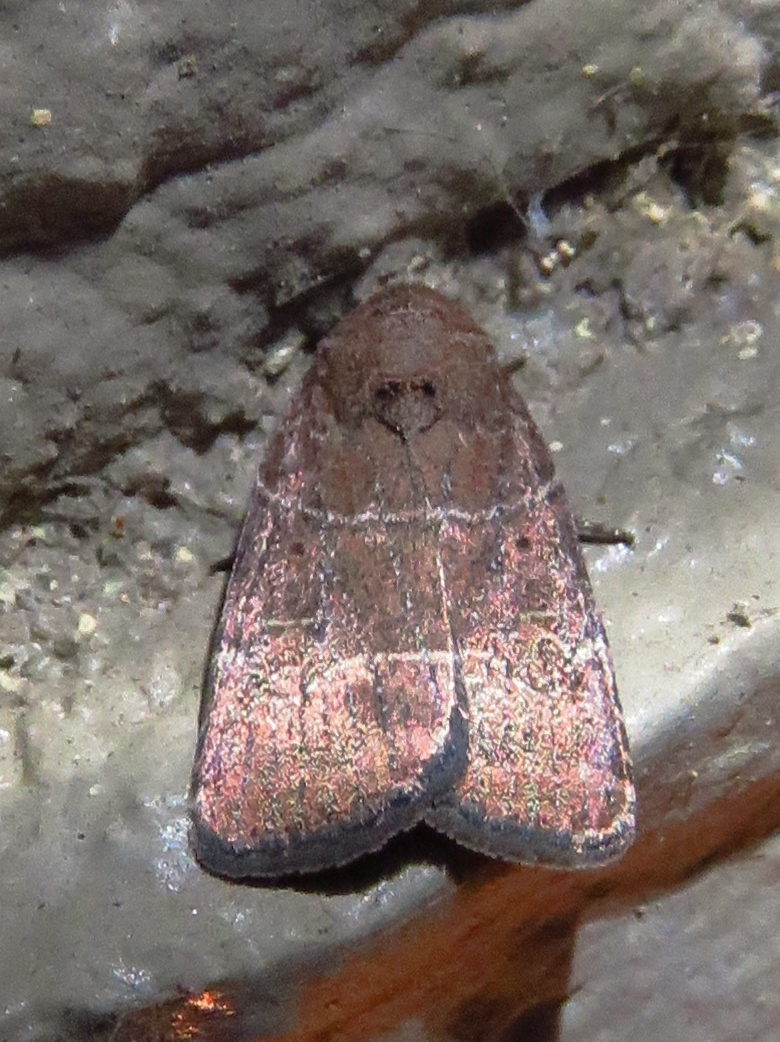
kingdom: Animalia
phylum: Arthropoda
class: Insecta
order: Lepidoptera
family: Noctuidae
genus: Elaphria
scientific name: Elaphria grata
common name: Grateful midget moth
